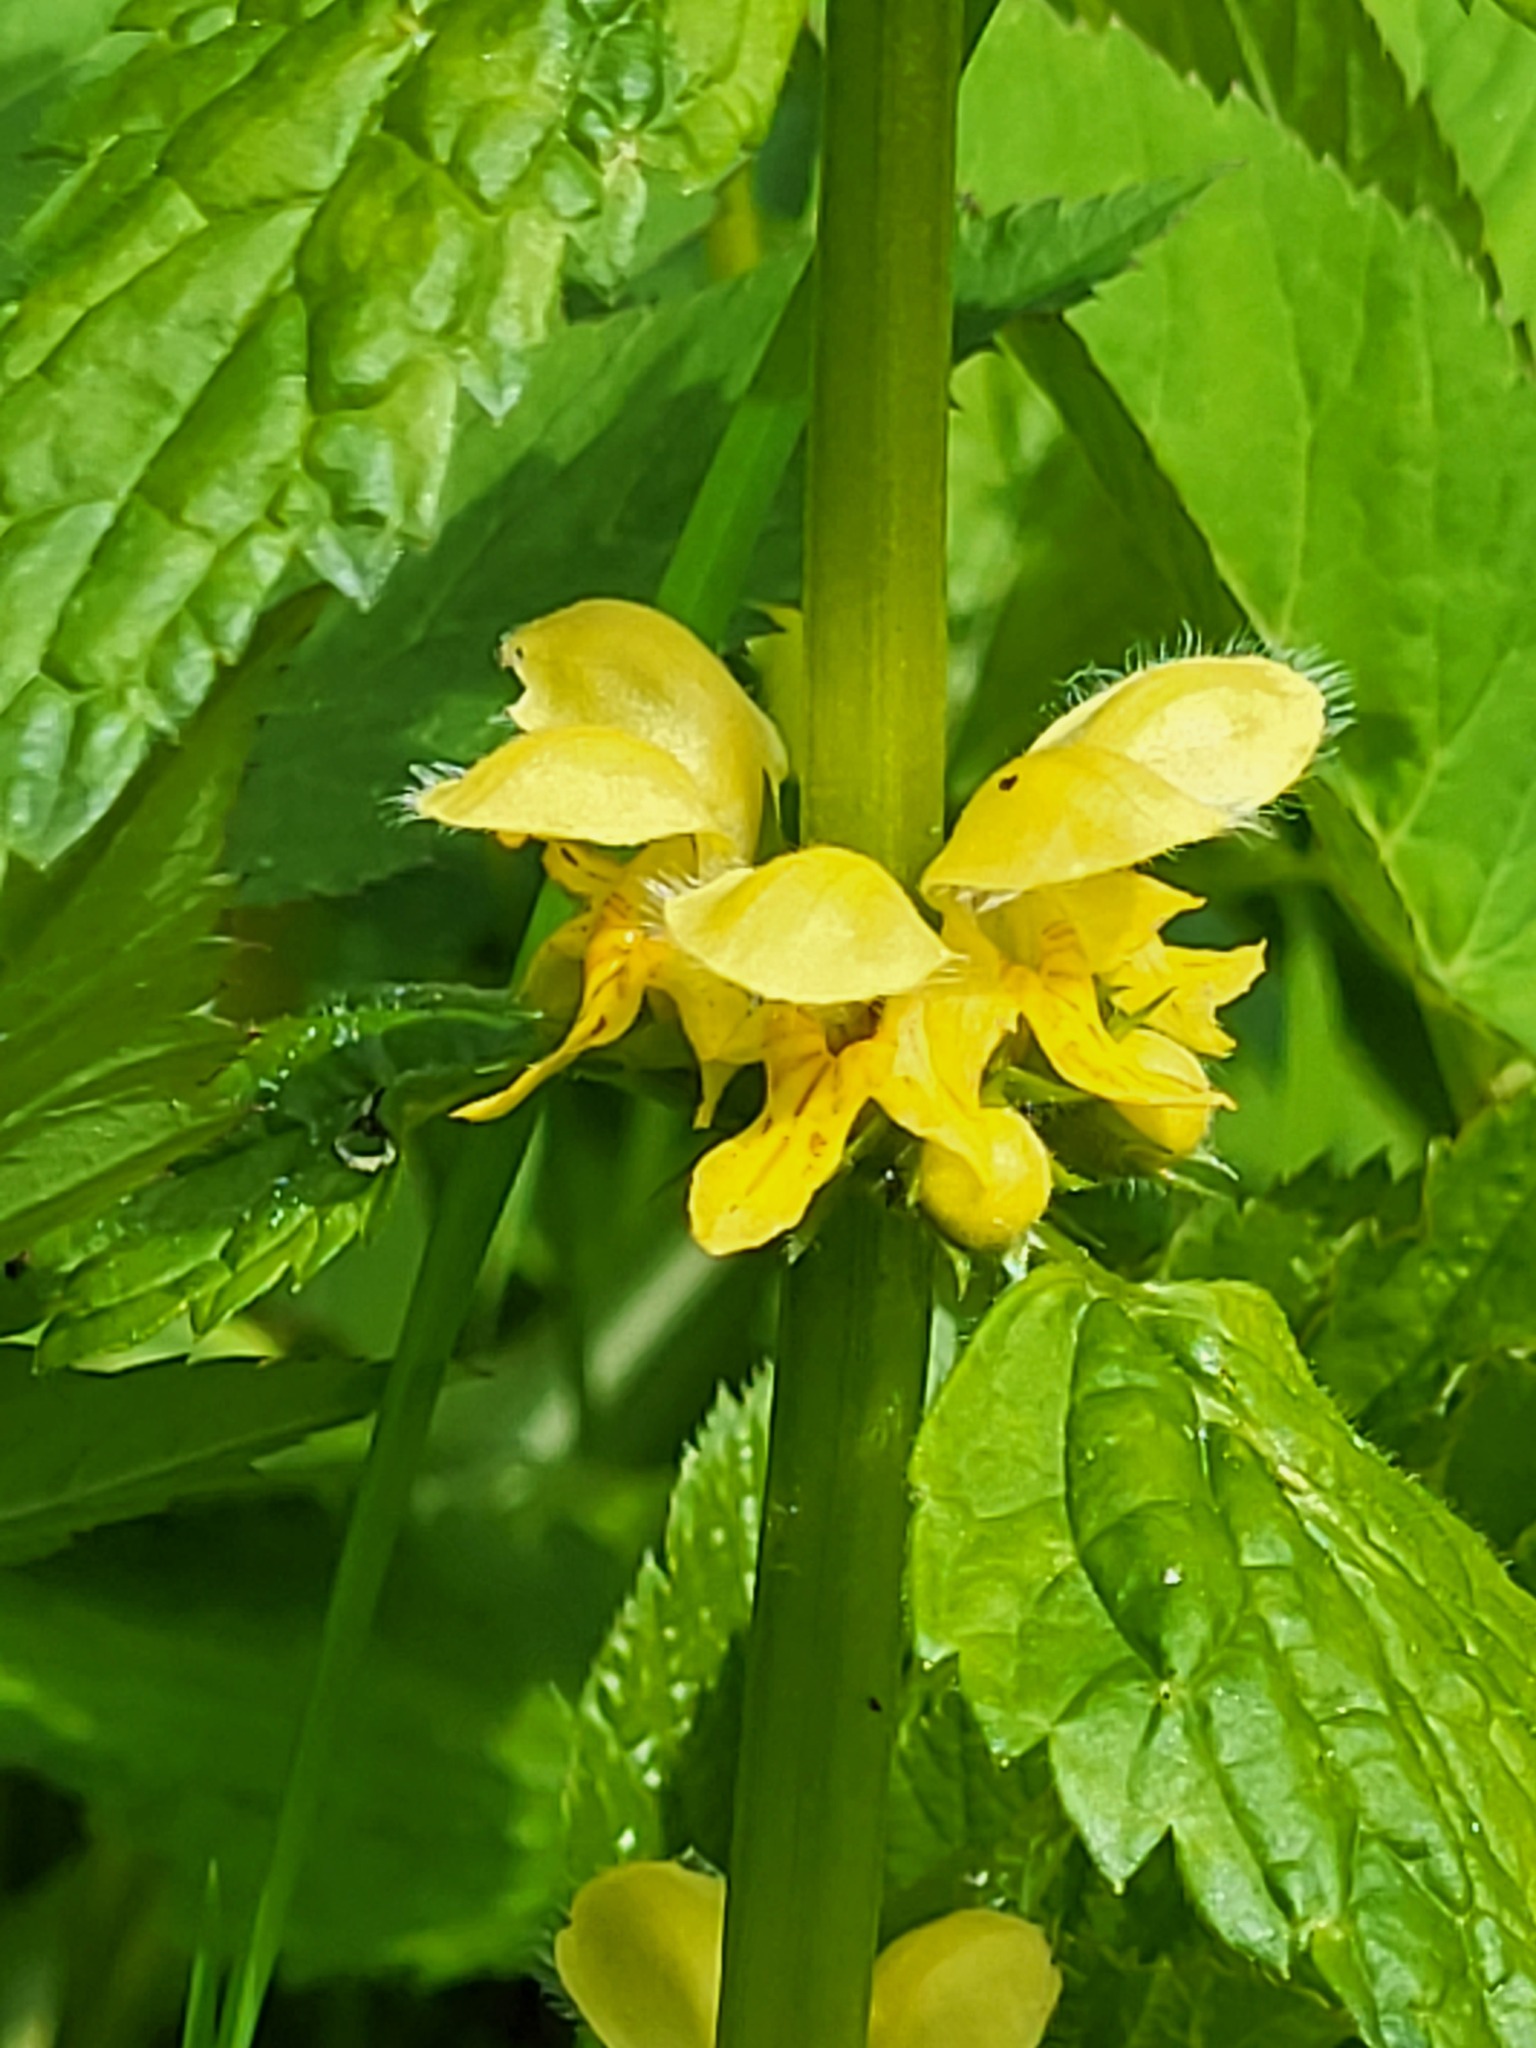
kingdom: Plantae
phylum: Tracheophyta
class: Magnoliopsida
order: Lamiales
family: Lamiaceae
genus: Lamium
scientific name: Lamium galeobdolon
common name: Yellow archangel
